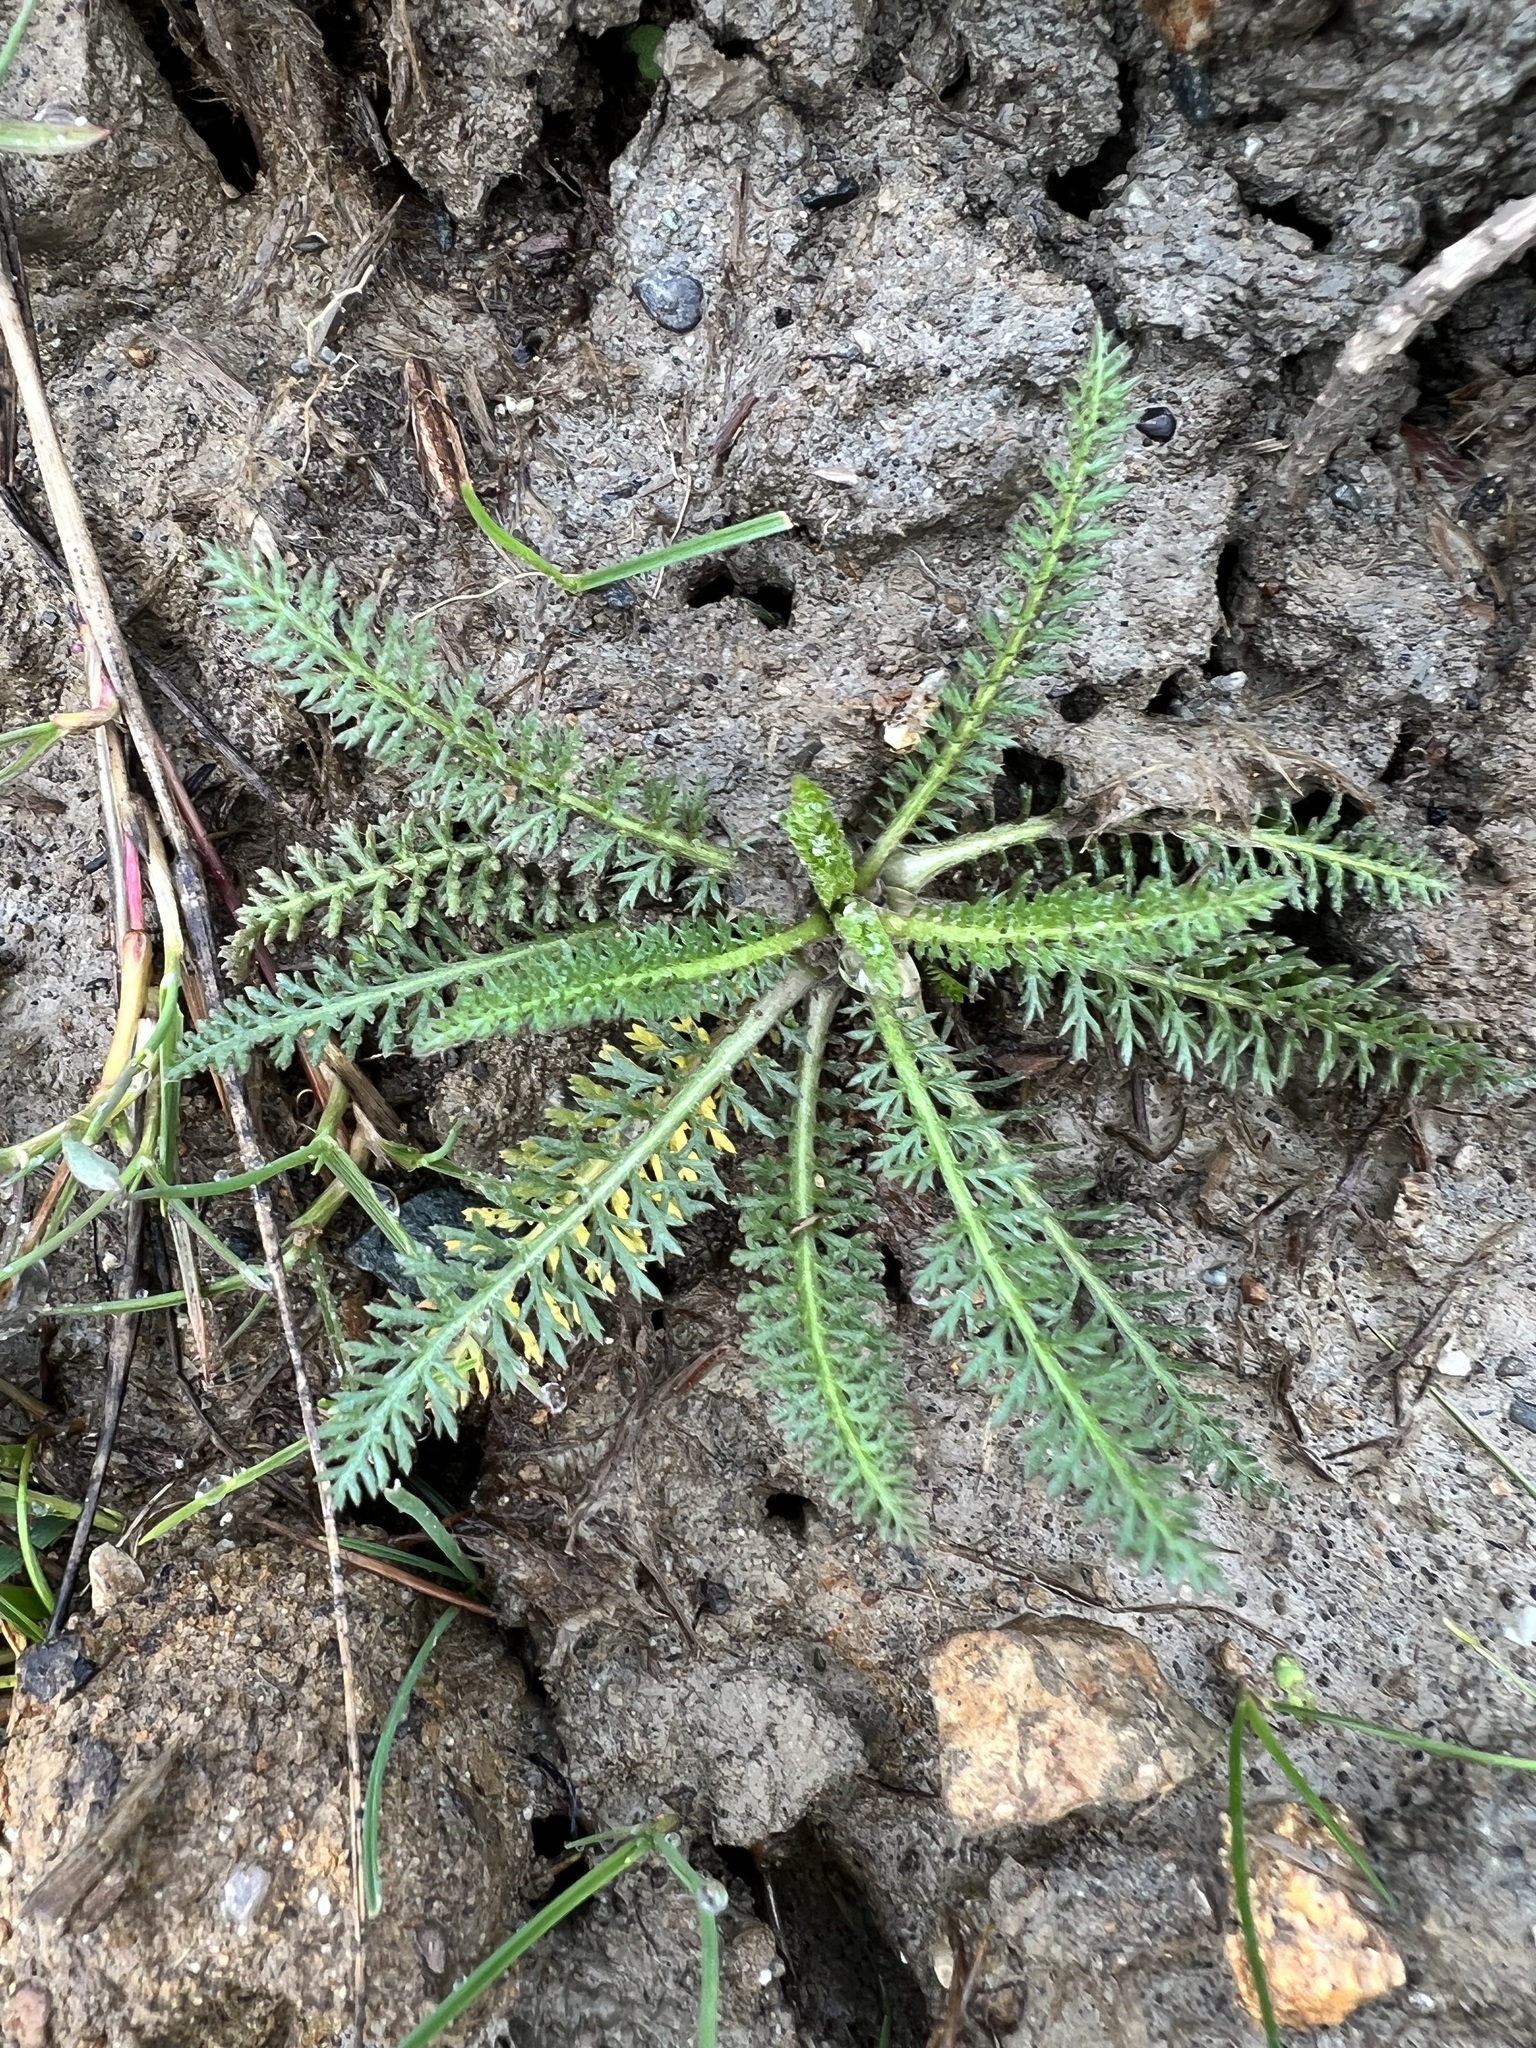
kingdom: Plantae
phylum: Tracheophyta
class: Magnoliopsida
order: Asterales
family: Asteraceae
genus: Achillea
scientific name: Achillea millefolium
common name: Yarrow
